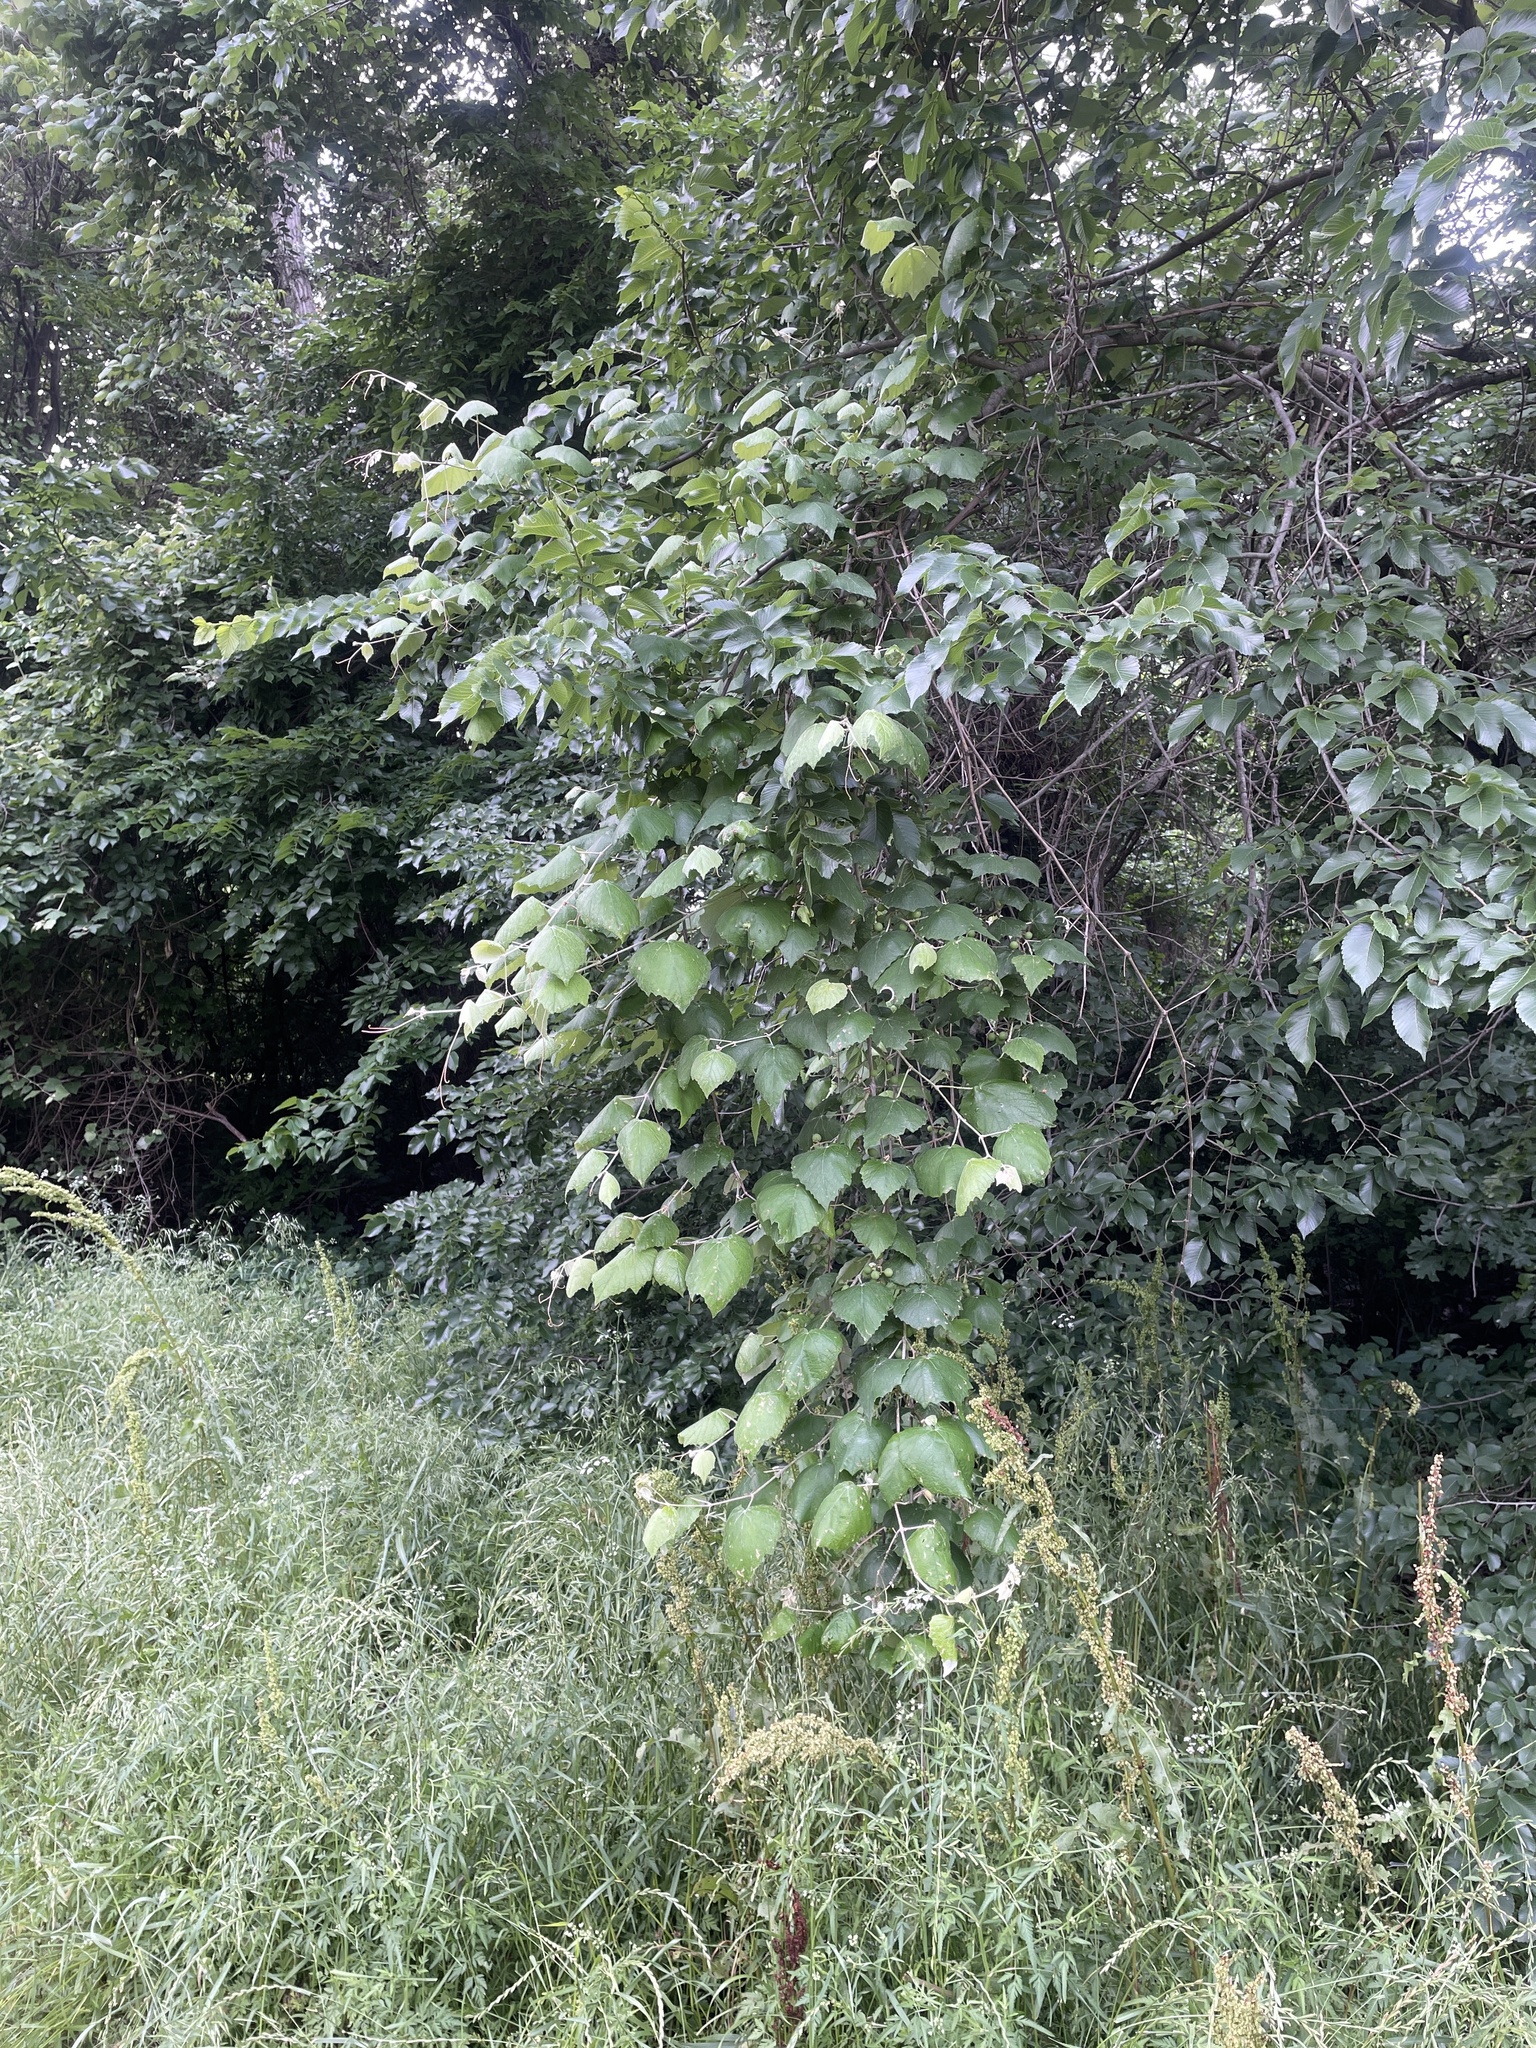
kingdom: Plantae
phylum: Tracheophyta
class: Magnoliopsida
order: Vitales
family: Vitaceae
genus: Vitis
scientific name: Vitis mustangensis
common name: Mustang grape
